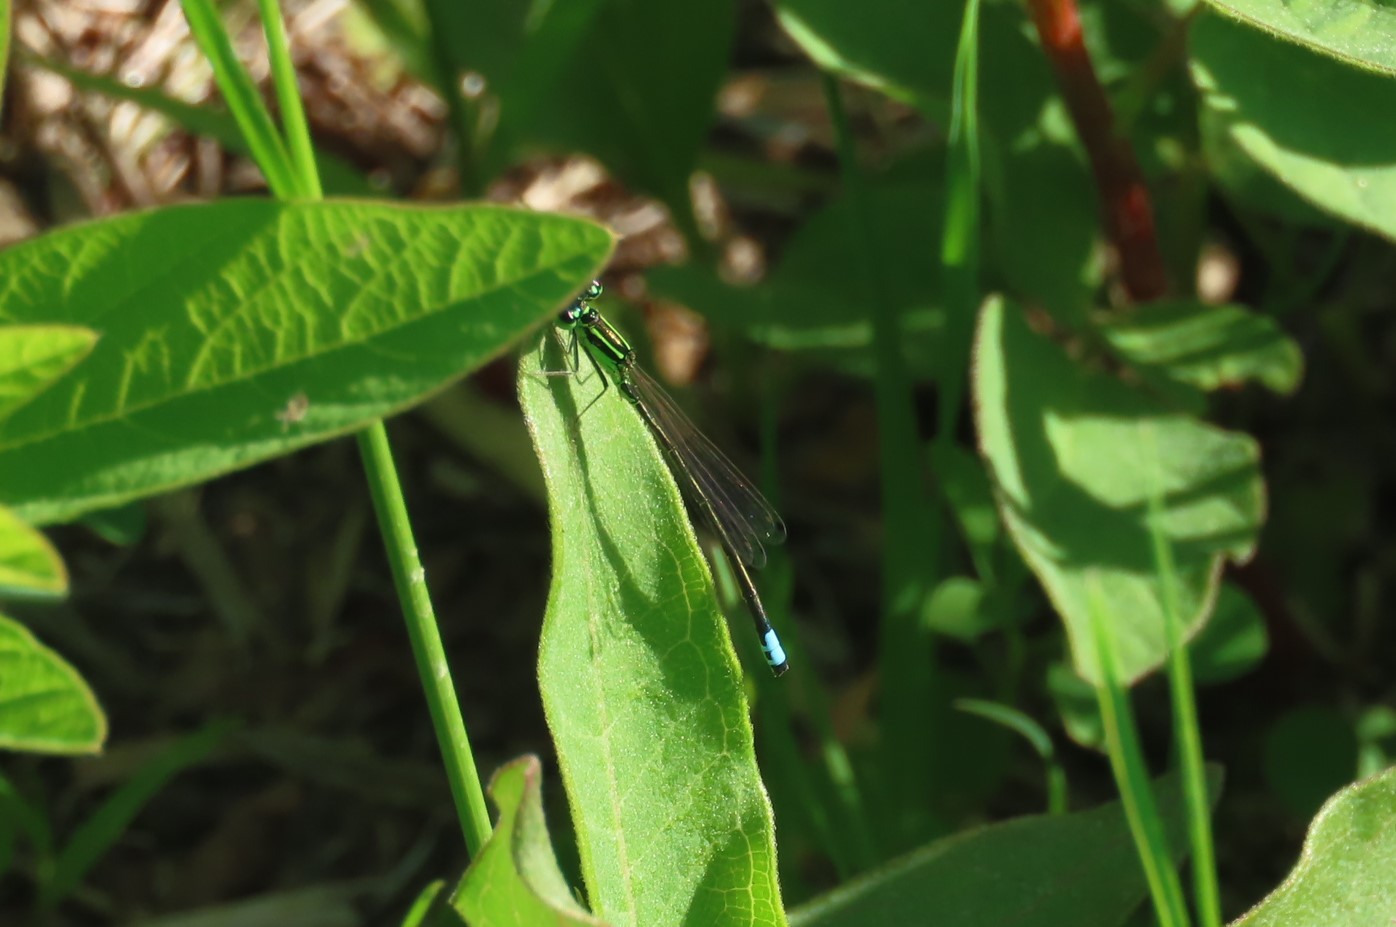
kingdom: Animalia
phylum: Arthropoda
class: Insecta
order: Odonata
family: Coenagrionidae
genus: Ischnura
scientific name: Ischnura verticalis
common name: Eastern forktail
